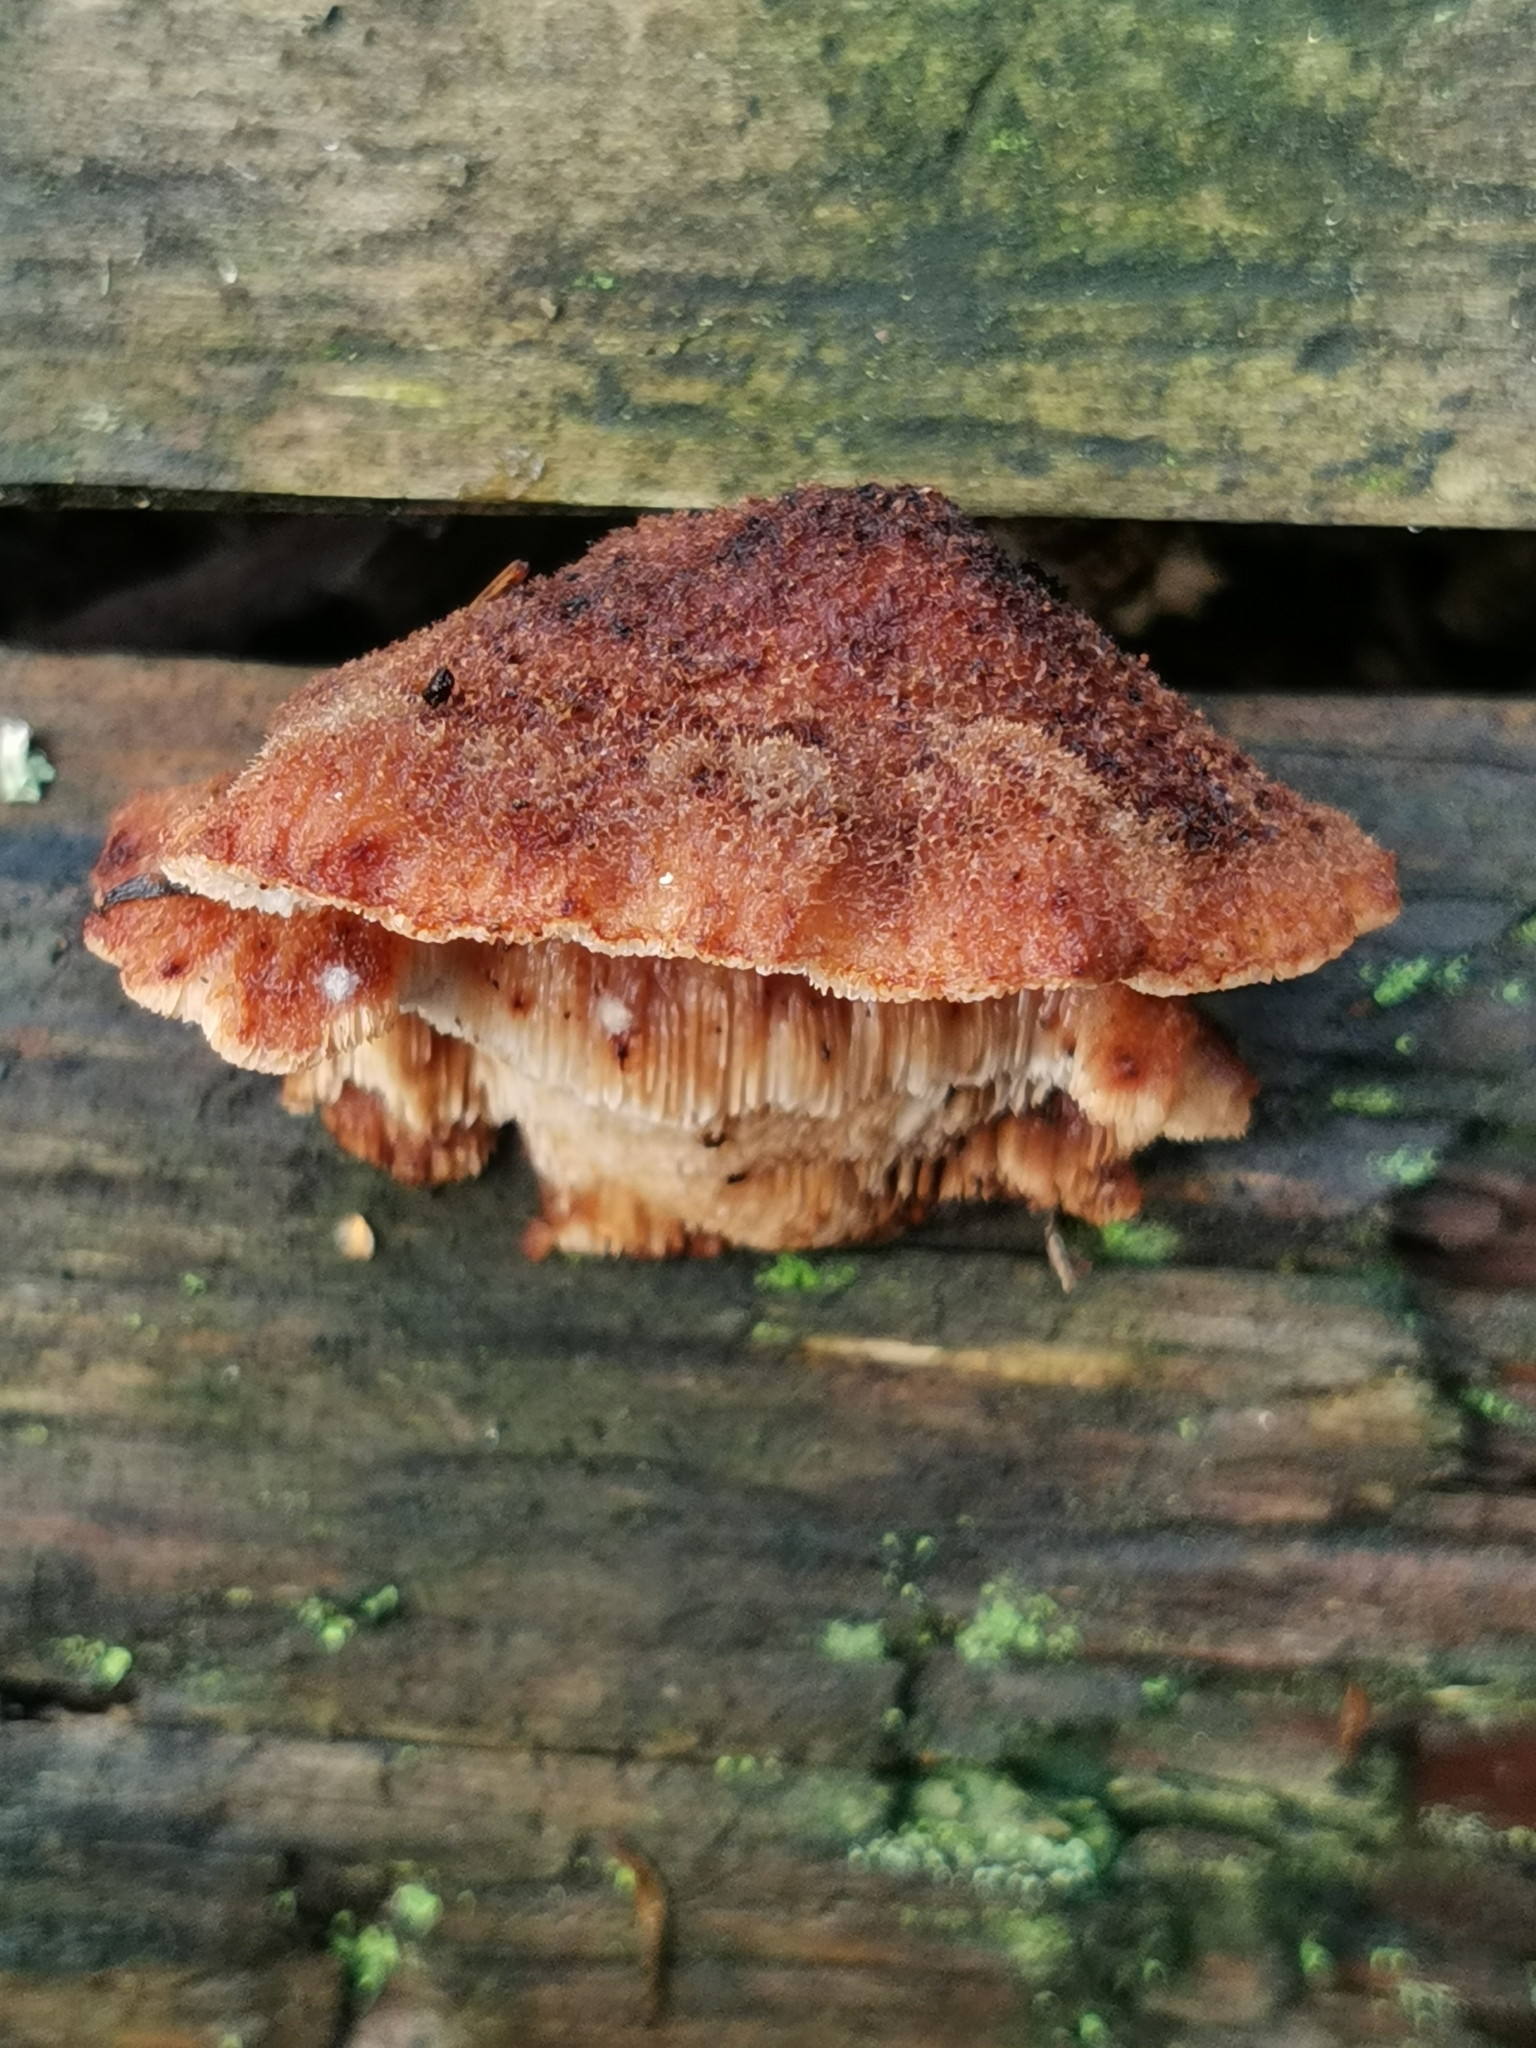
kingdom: Fungi
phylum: Basidiomycota
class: Agaricomycetes
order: Polyporales
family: Dacryobolaceae
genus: Amylocystis
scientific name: Amylocystis lapponica
